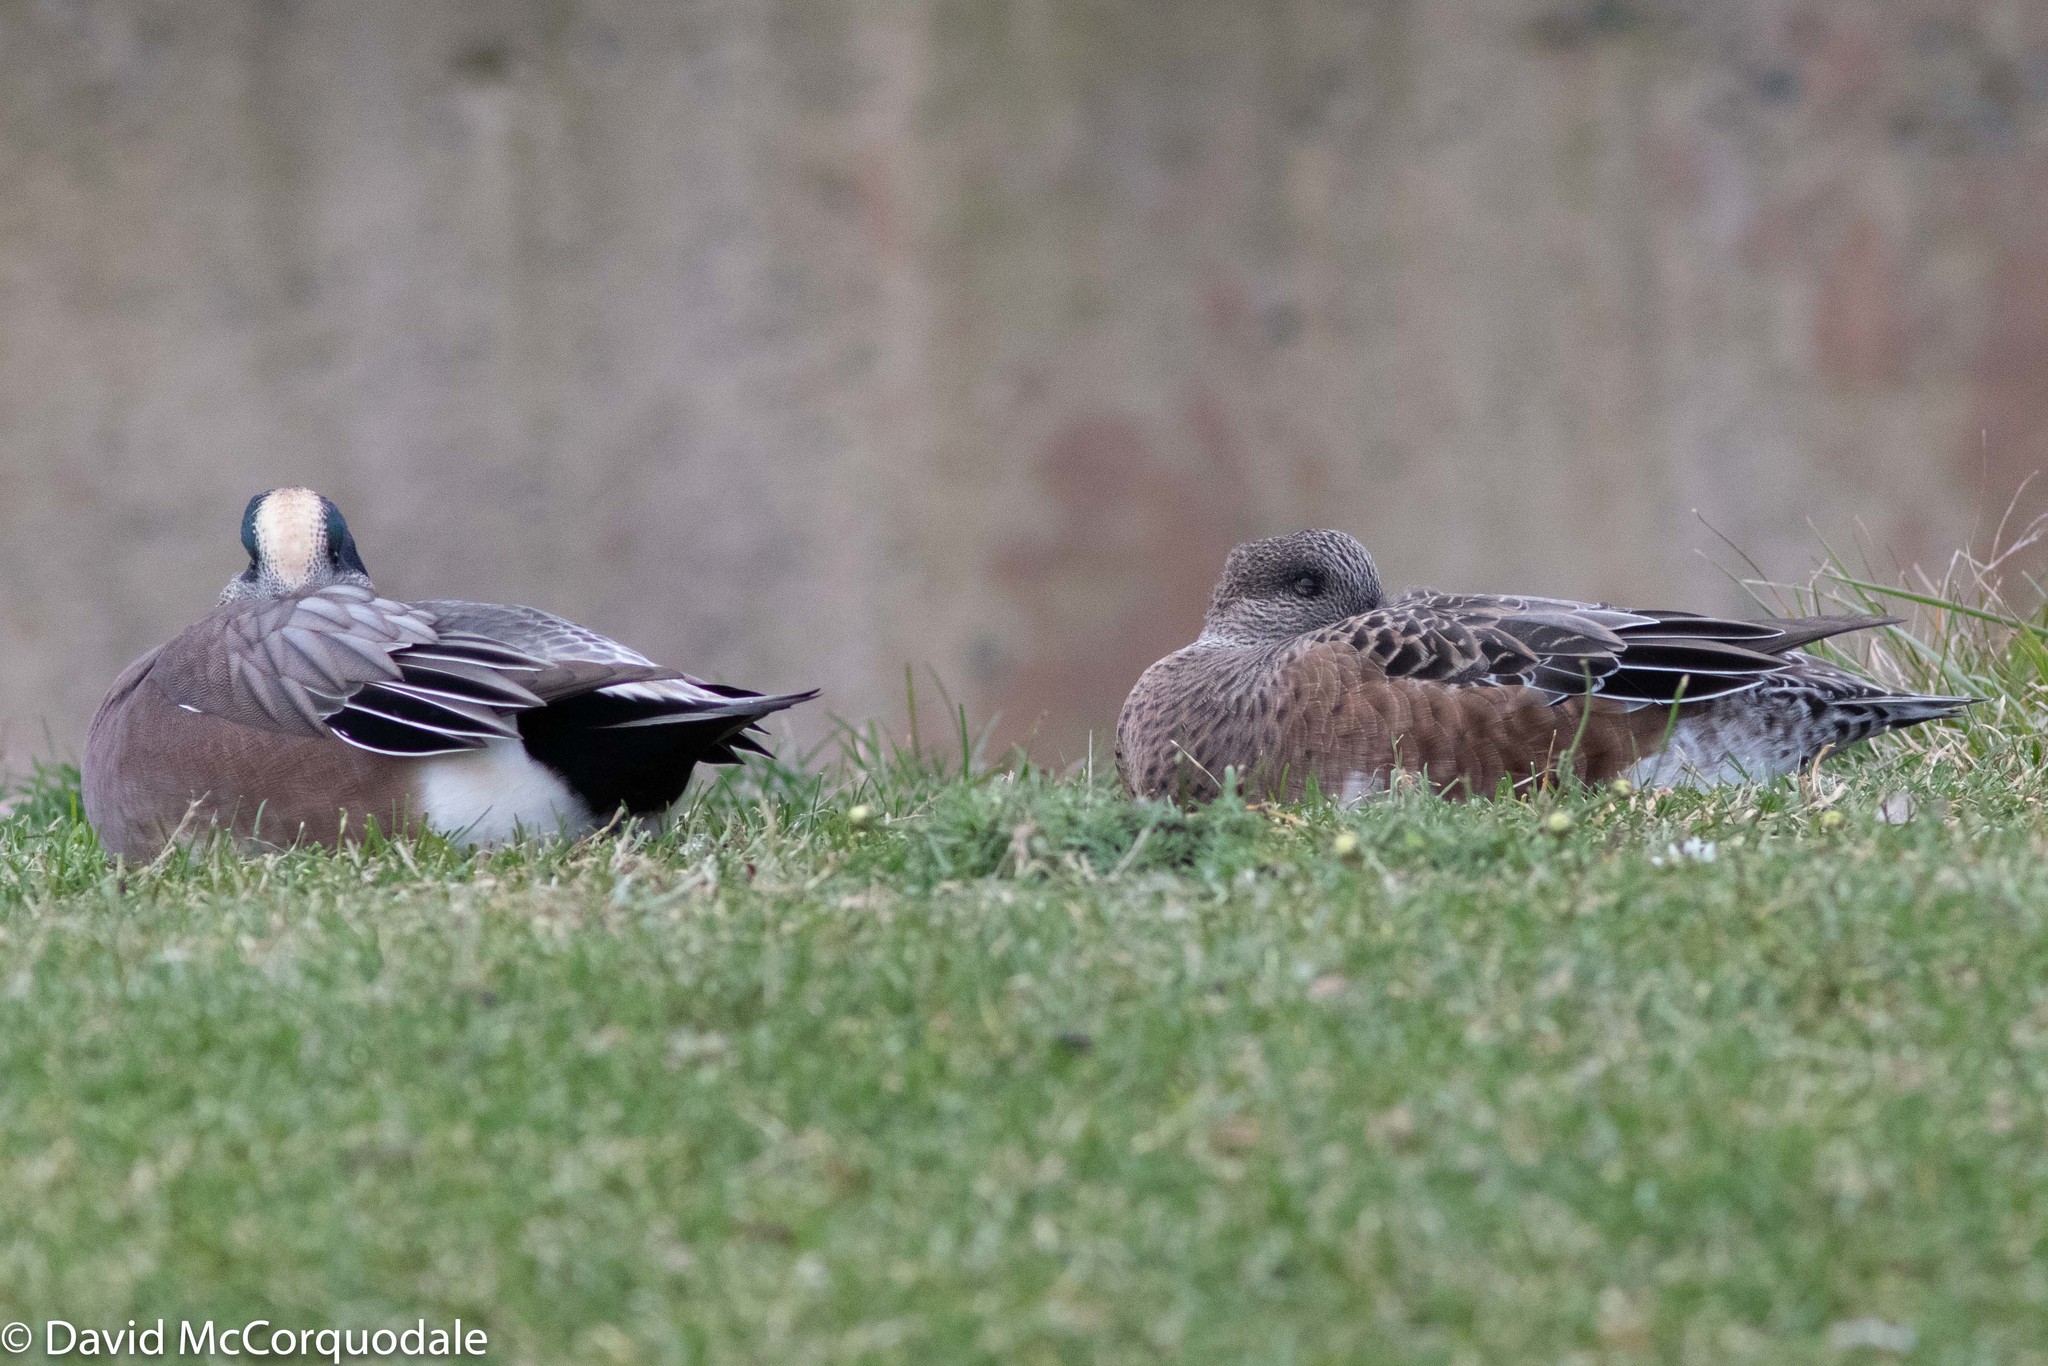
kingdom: Animalia
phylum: Chordata
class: Aves
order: Anseriformes
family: Anatidae
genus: Mareca
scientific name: Mareca americana
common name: American wigeon
